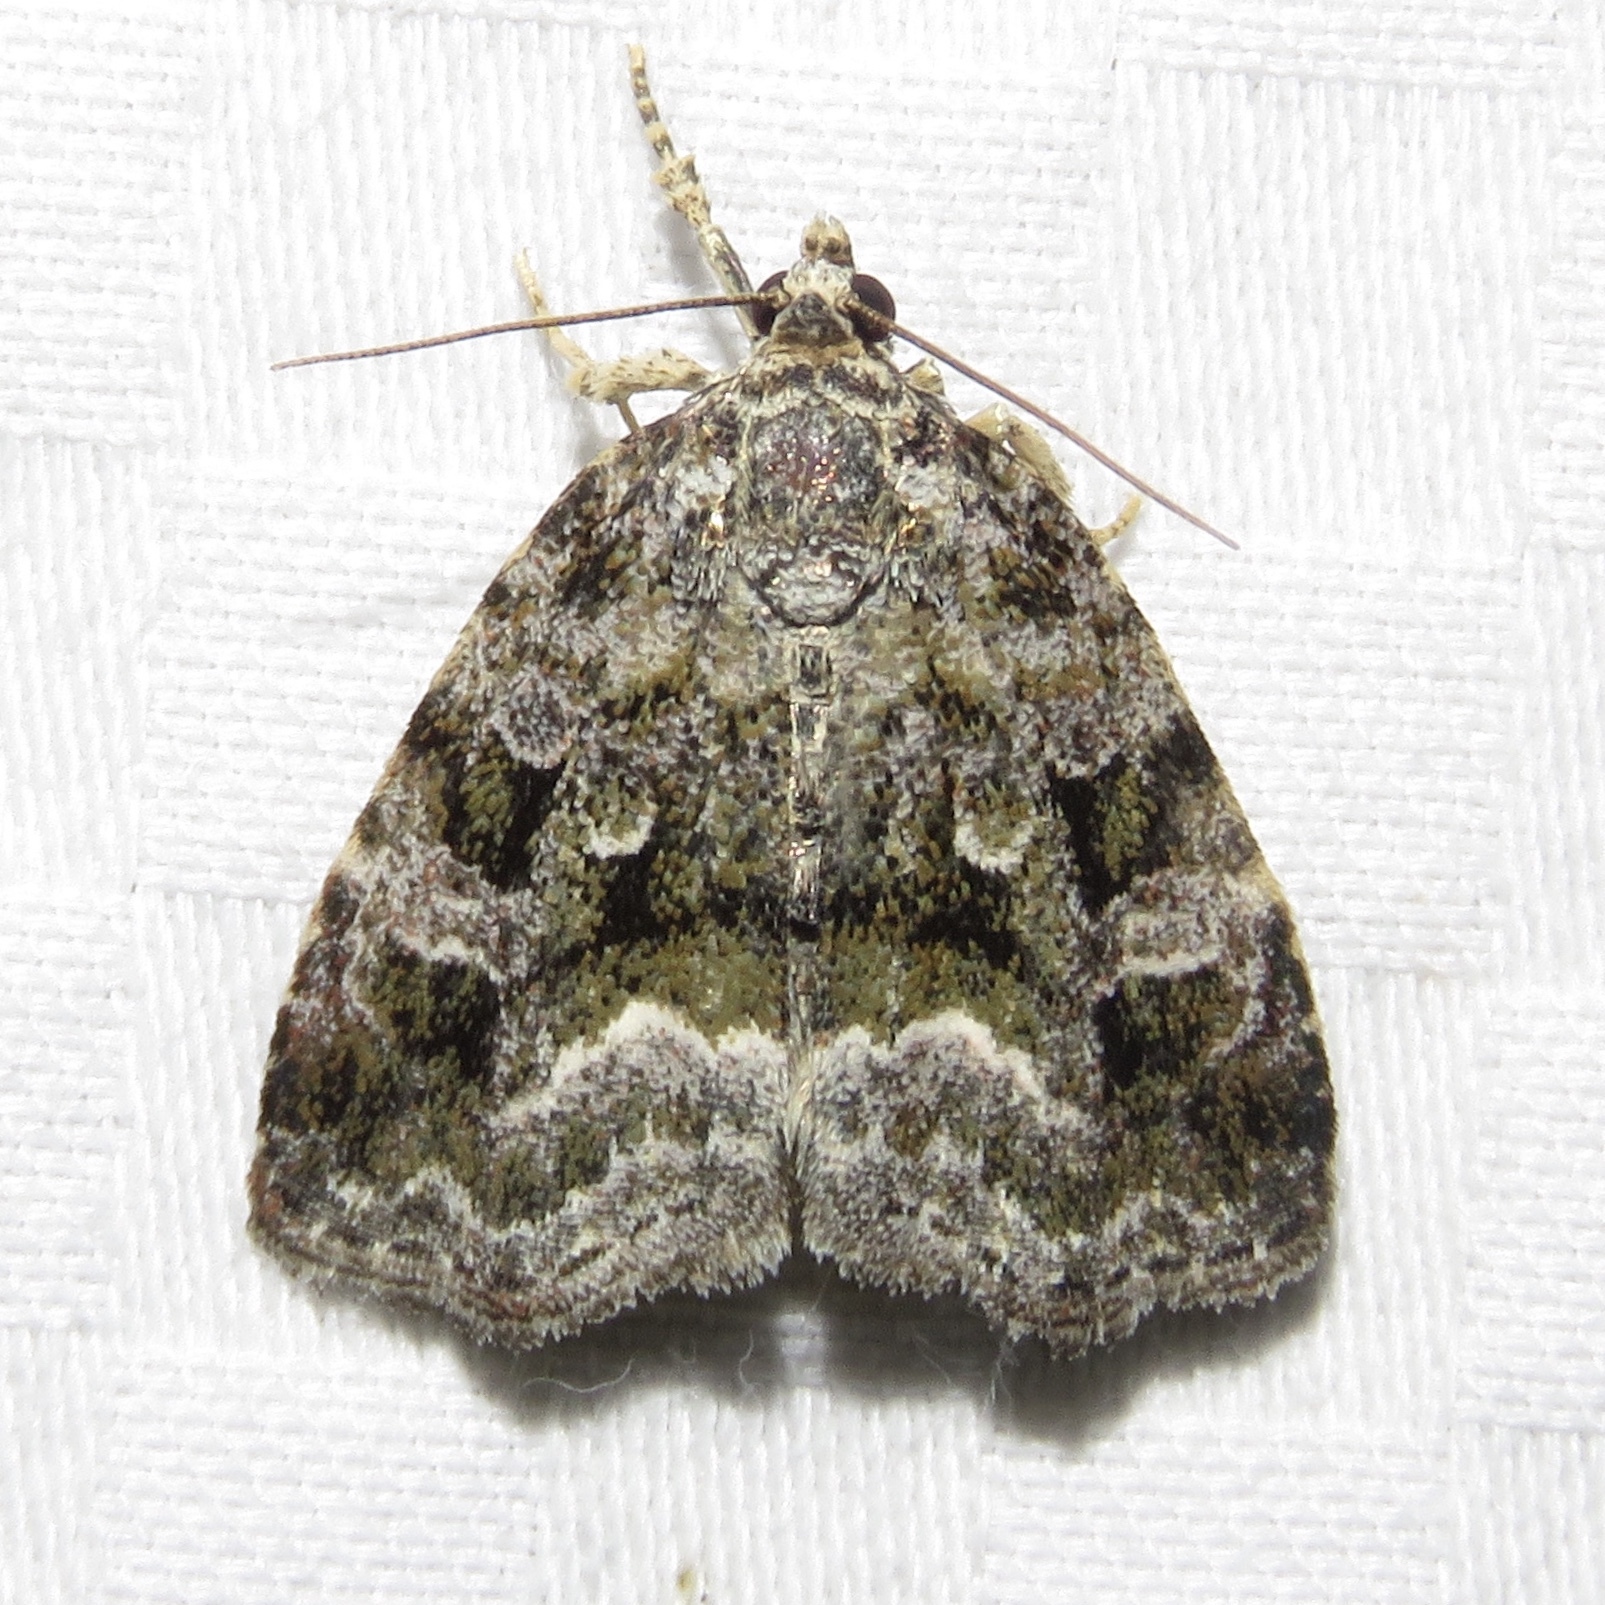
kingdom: Animalia
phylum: Arthropoda
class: Insecta
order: Lepidoptera
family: Noctuidae
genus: Protodeltote
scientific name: Protodeltote muscosula
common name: Large mossy glyph
